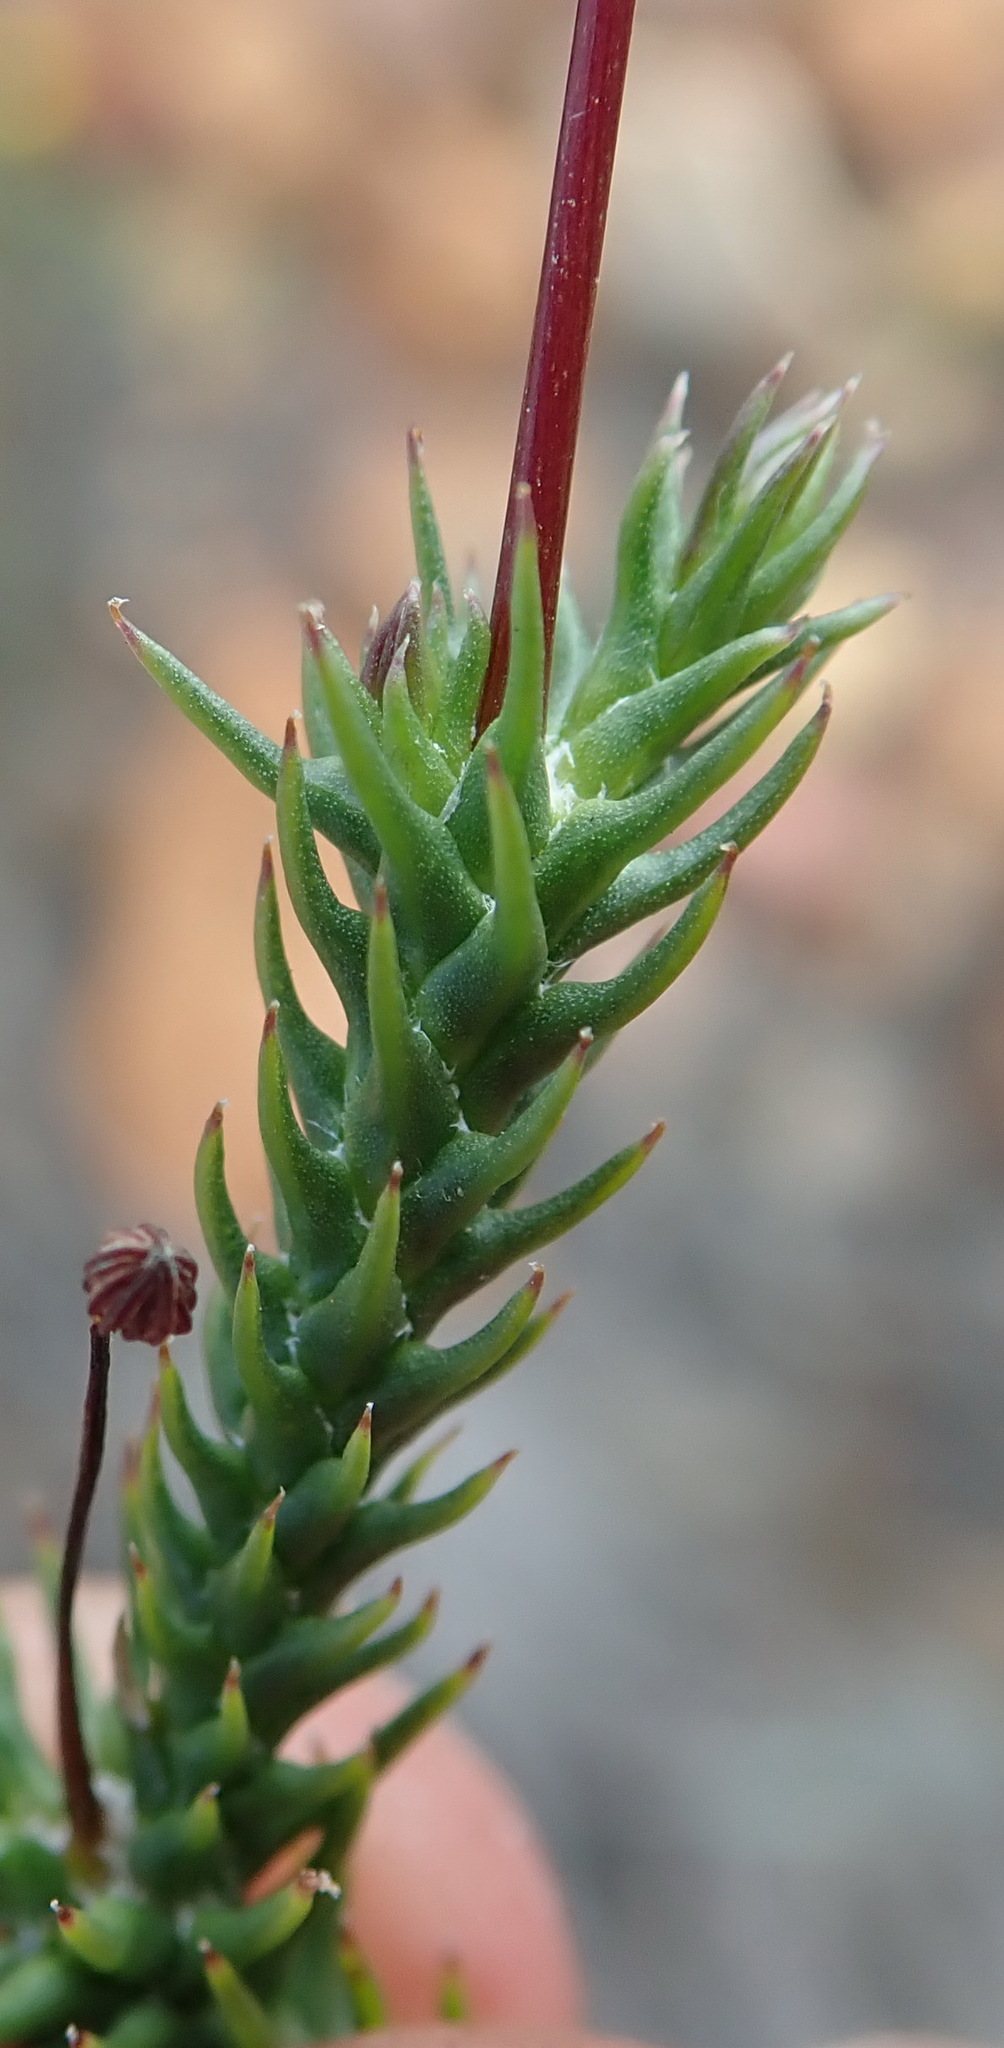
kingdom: Plantae
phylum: Tracheophyta
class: Magnoliopsida
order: Asterales
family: Asteraceae
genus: Euryops
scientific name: Euryops ericoides
